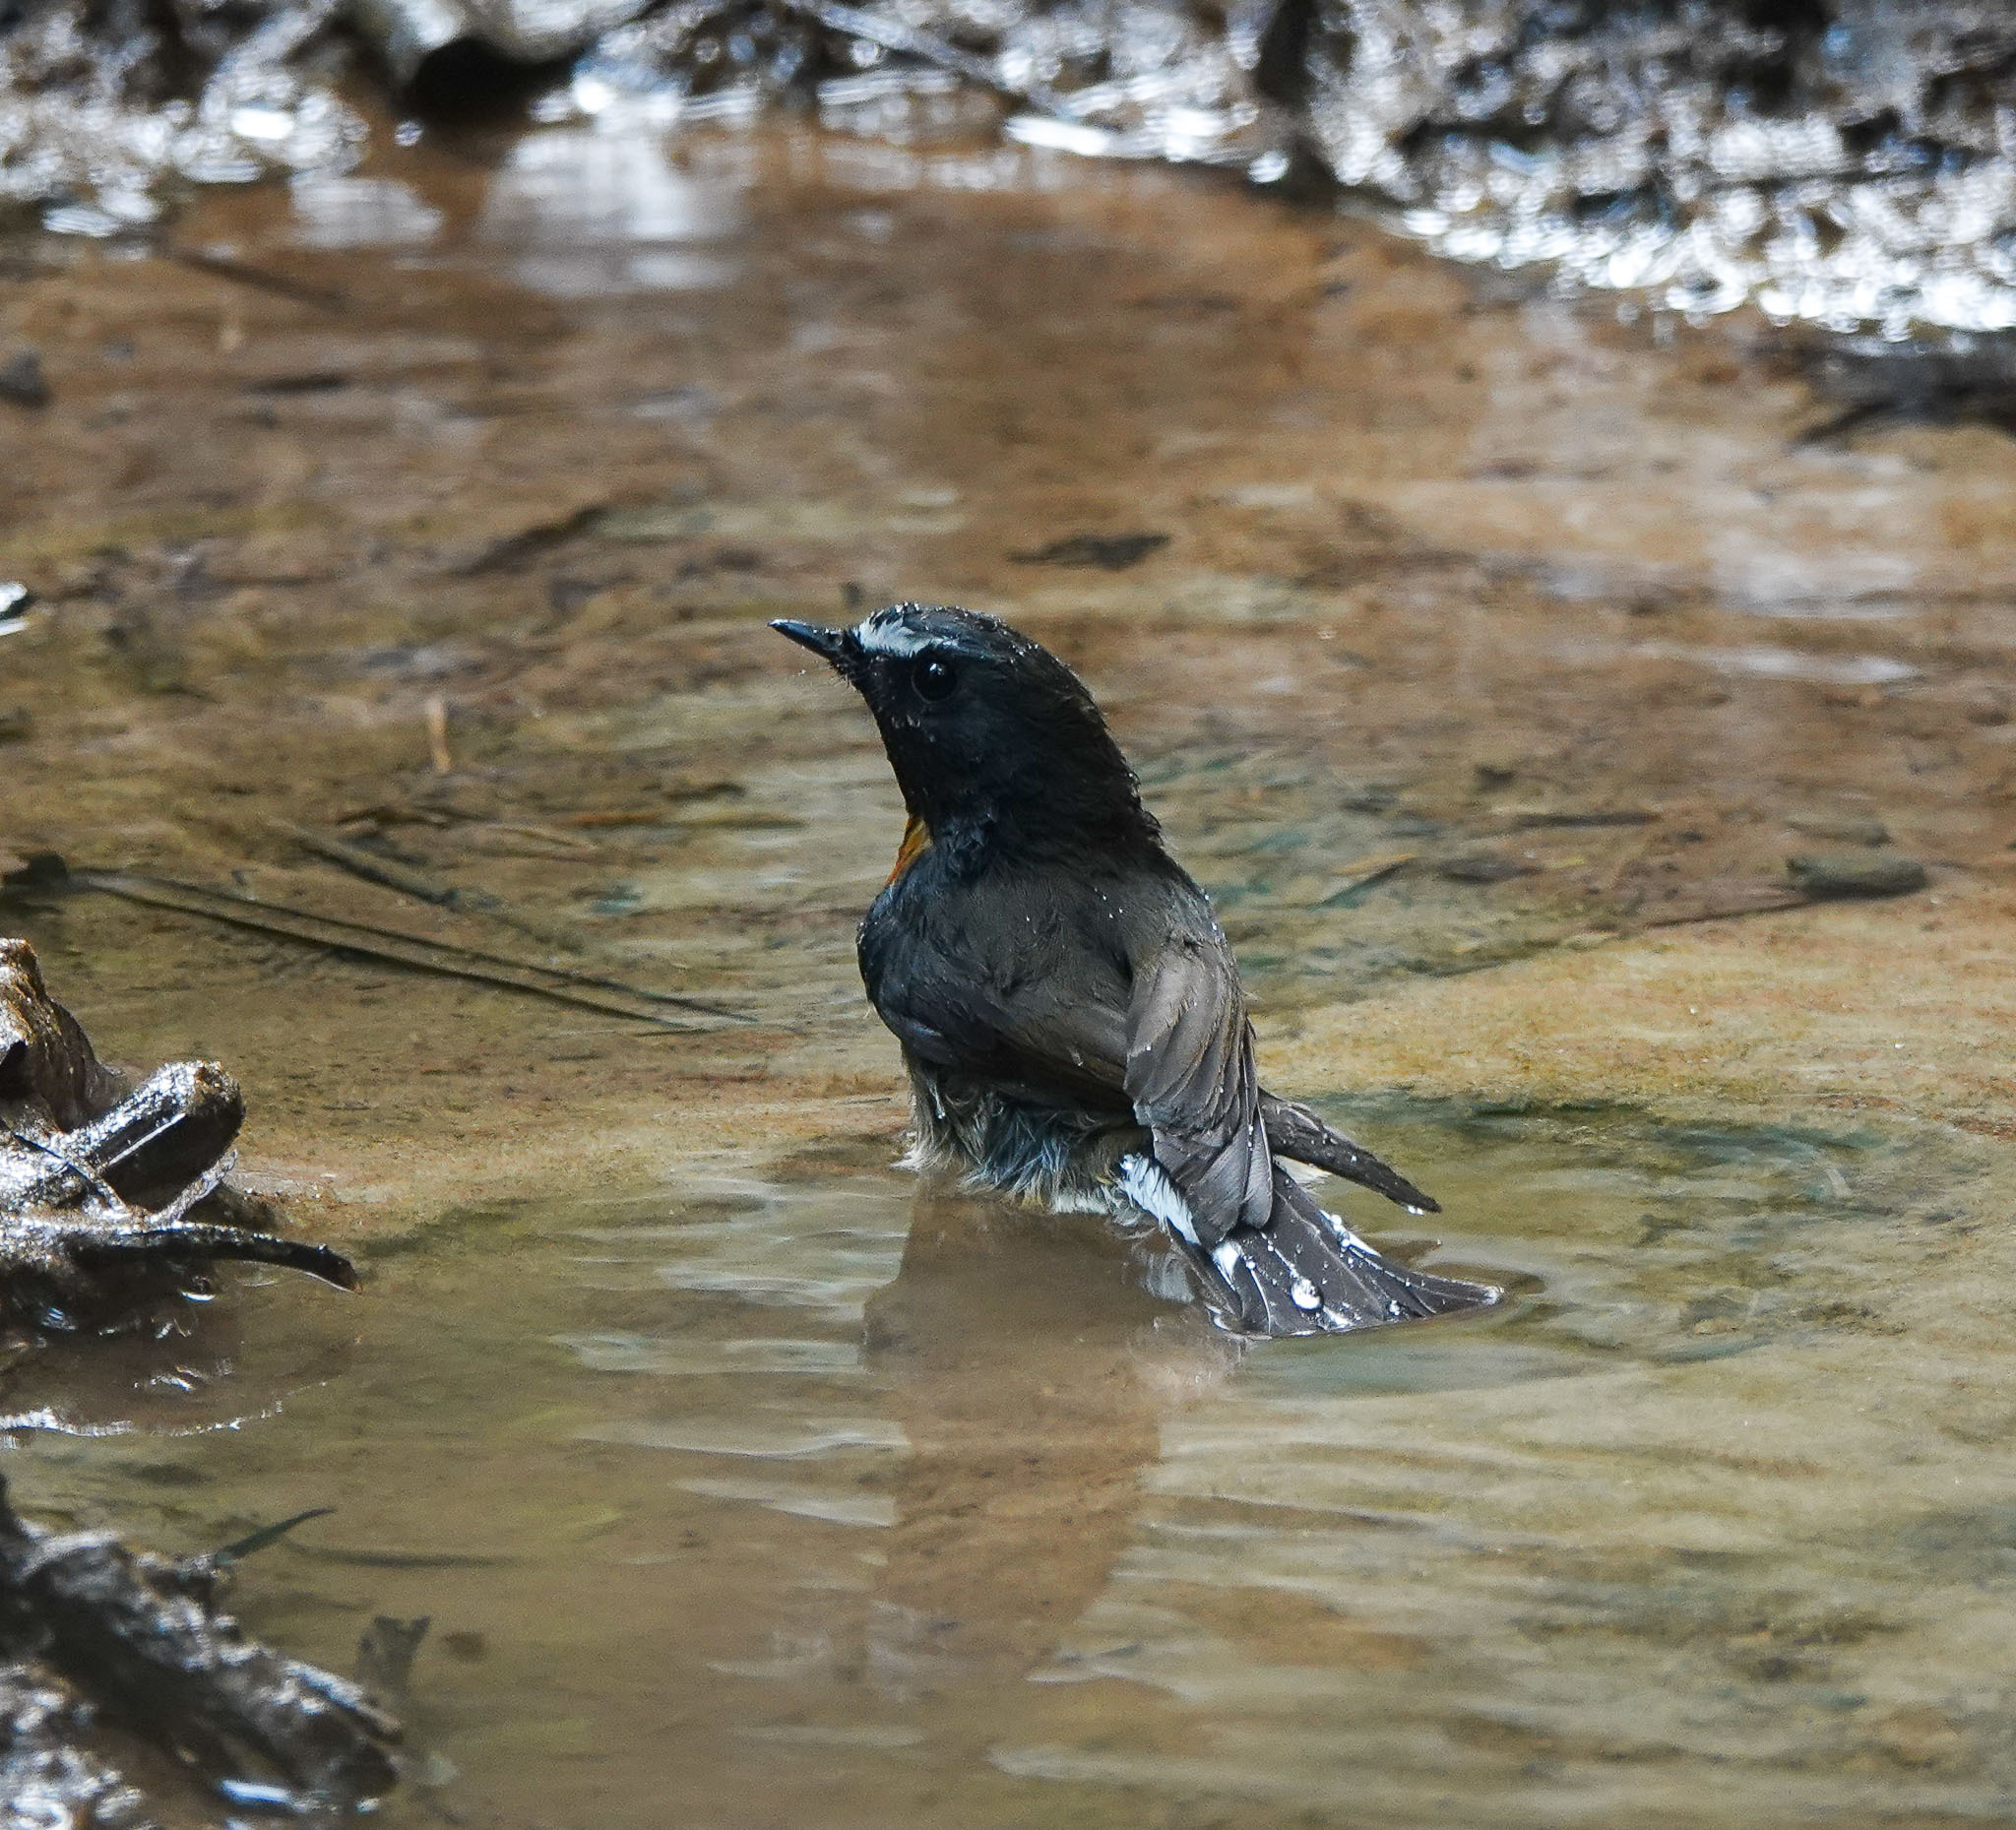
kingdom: Animalia
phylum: Chordata
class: Aves
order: Passeriformes
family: Muscicapidae
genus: Ficedula
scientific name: Ficedula hyperythra
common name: Snowy-browed flycatcher
